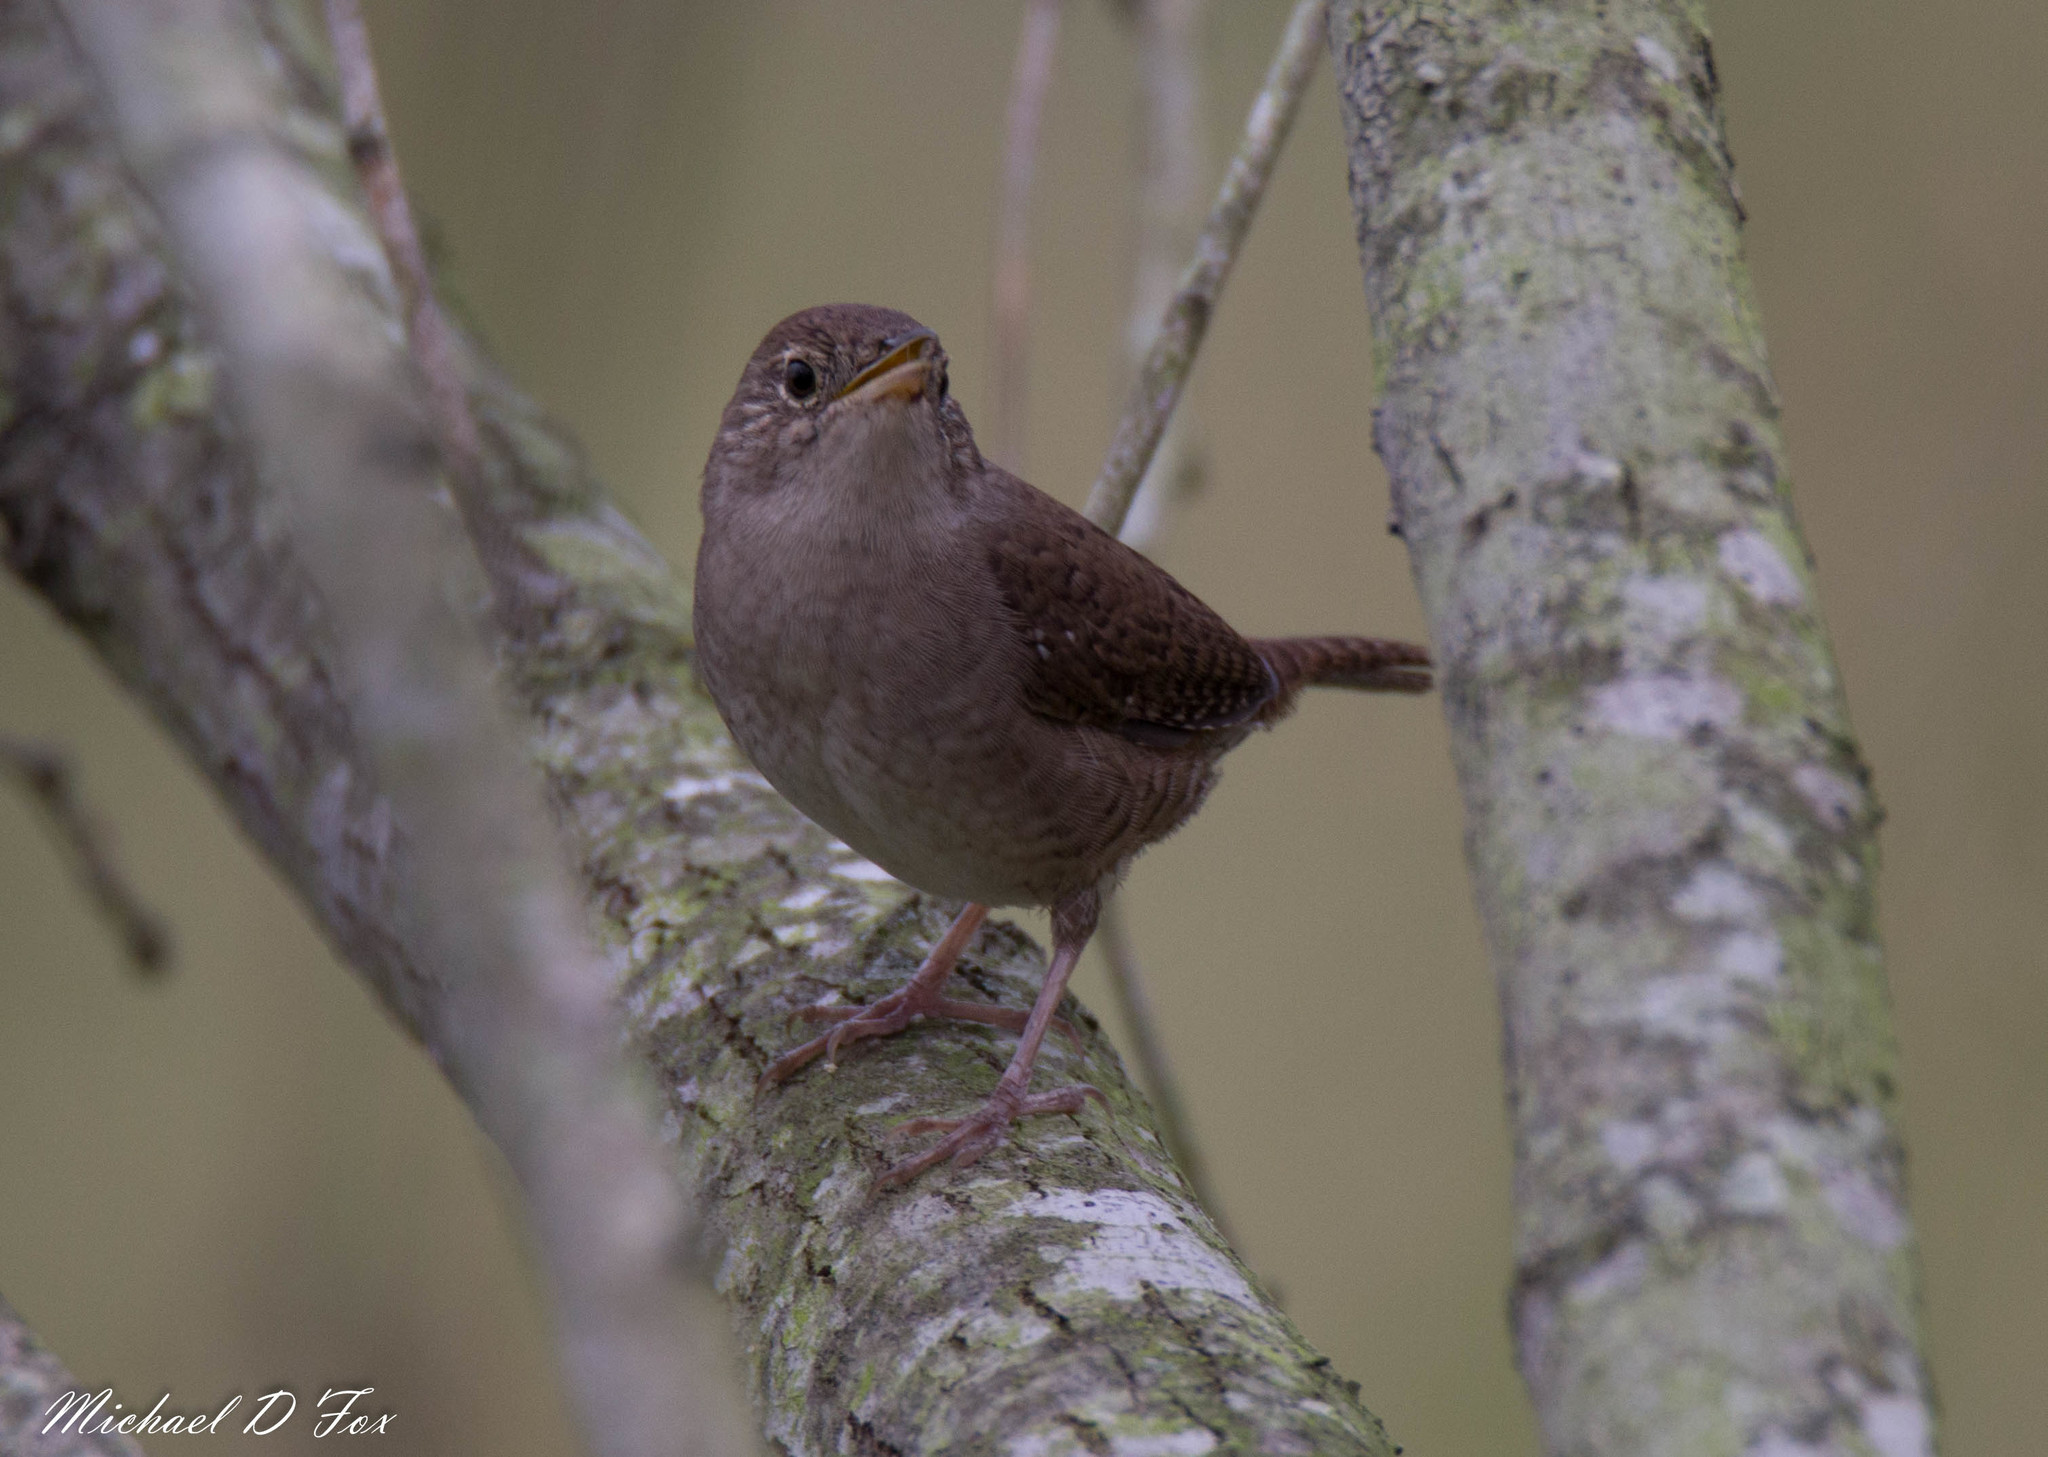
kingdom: Animalia
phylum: Chordata
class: Aves
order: Passeriformes
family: Troglodytidae
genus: Troglodytes
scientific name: Troglodytes aedon
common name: House wren
